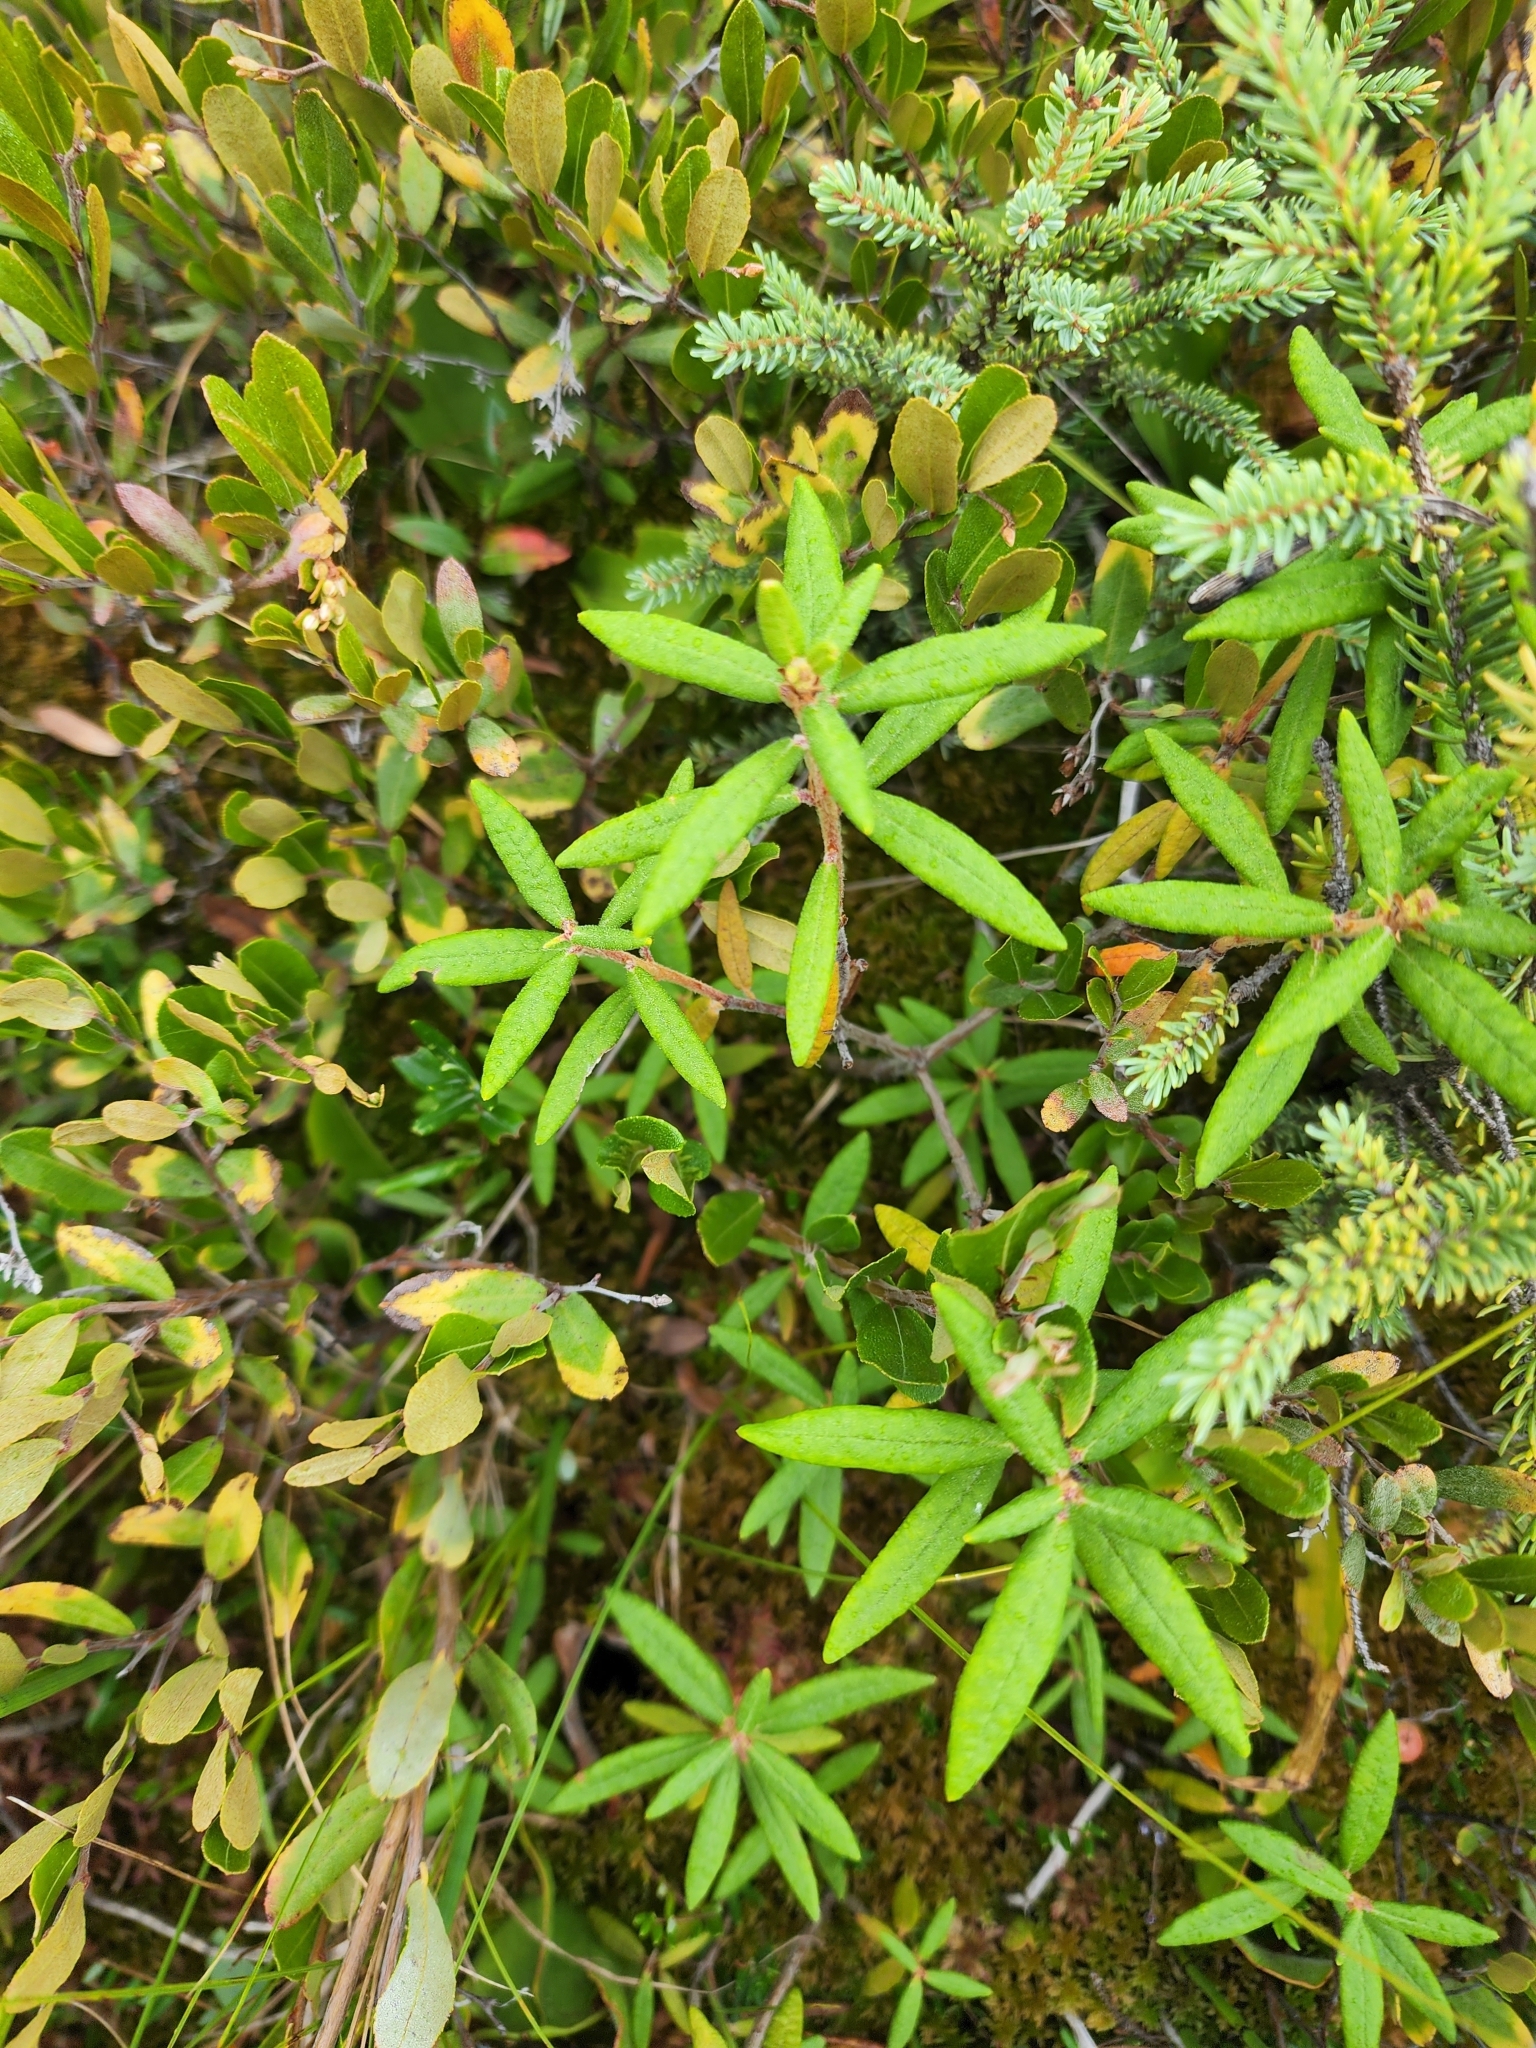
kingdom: Plantae
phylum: Tracheophyta
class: Magnoliopsida
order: Ericales
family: Ericaceae
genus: Rhododendron
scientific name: Rhododendron groenlandicum
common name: Bog labrador tea
